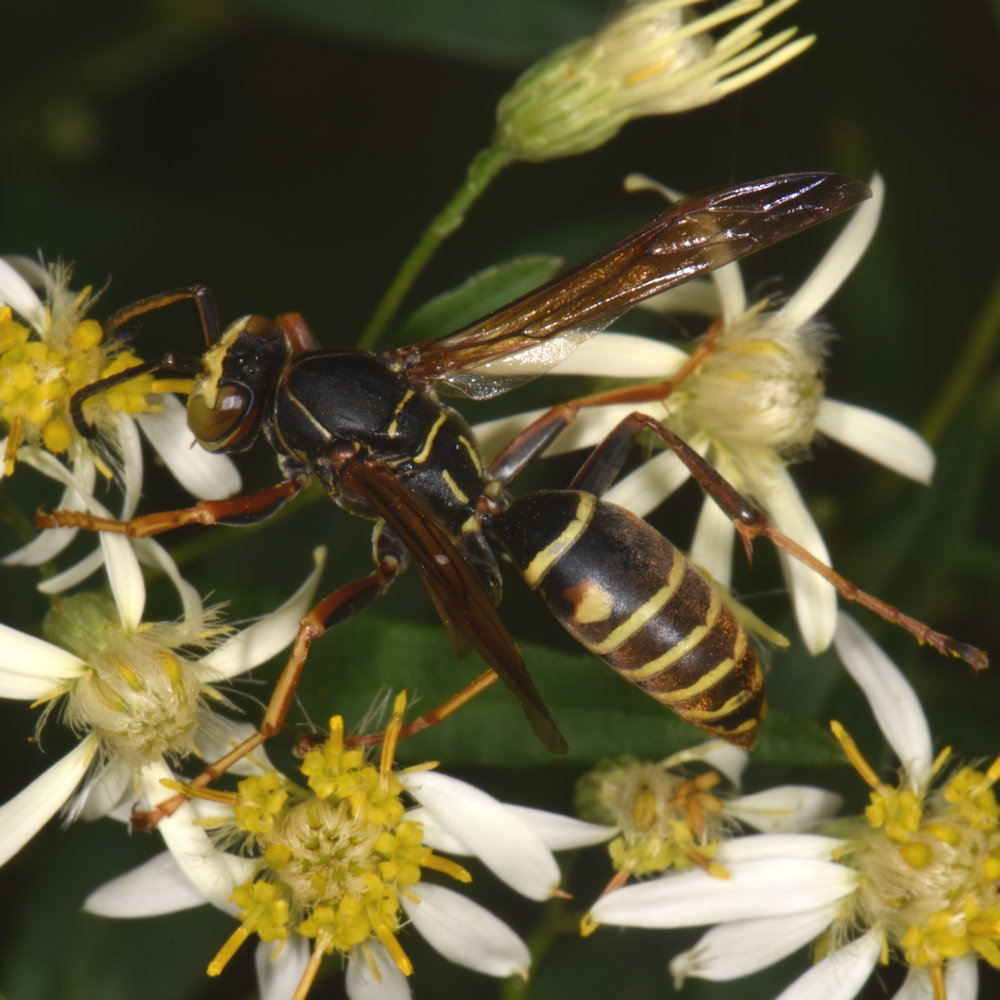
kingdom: Animalia
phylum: Arthropoda
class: Insecta
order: Hymenoptera
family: Eumenidae
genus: Polistes
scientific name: Polistes fuscatus
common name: Dark paper wasp
